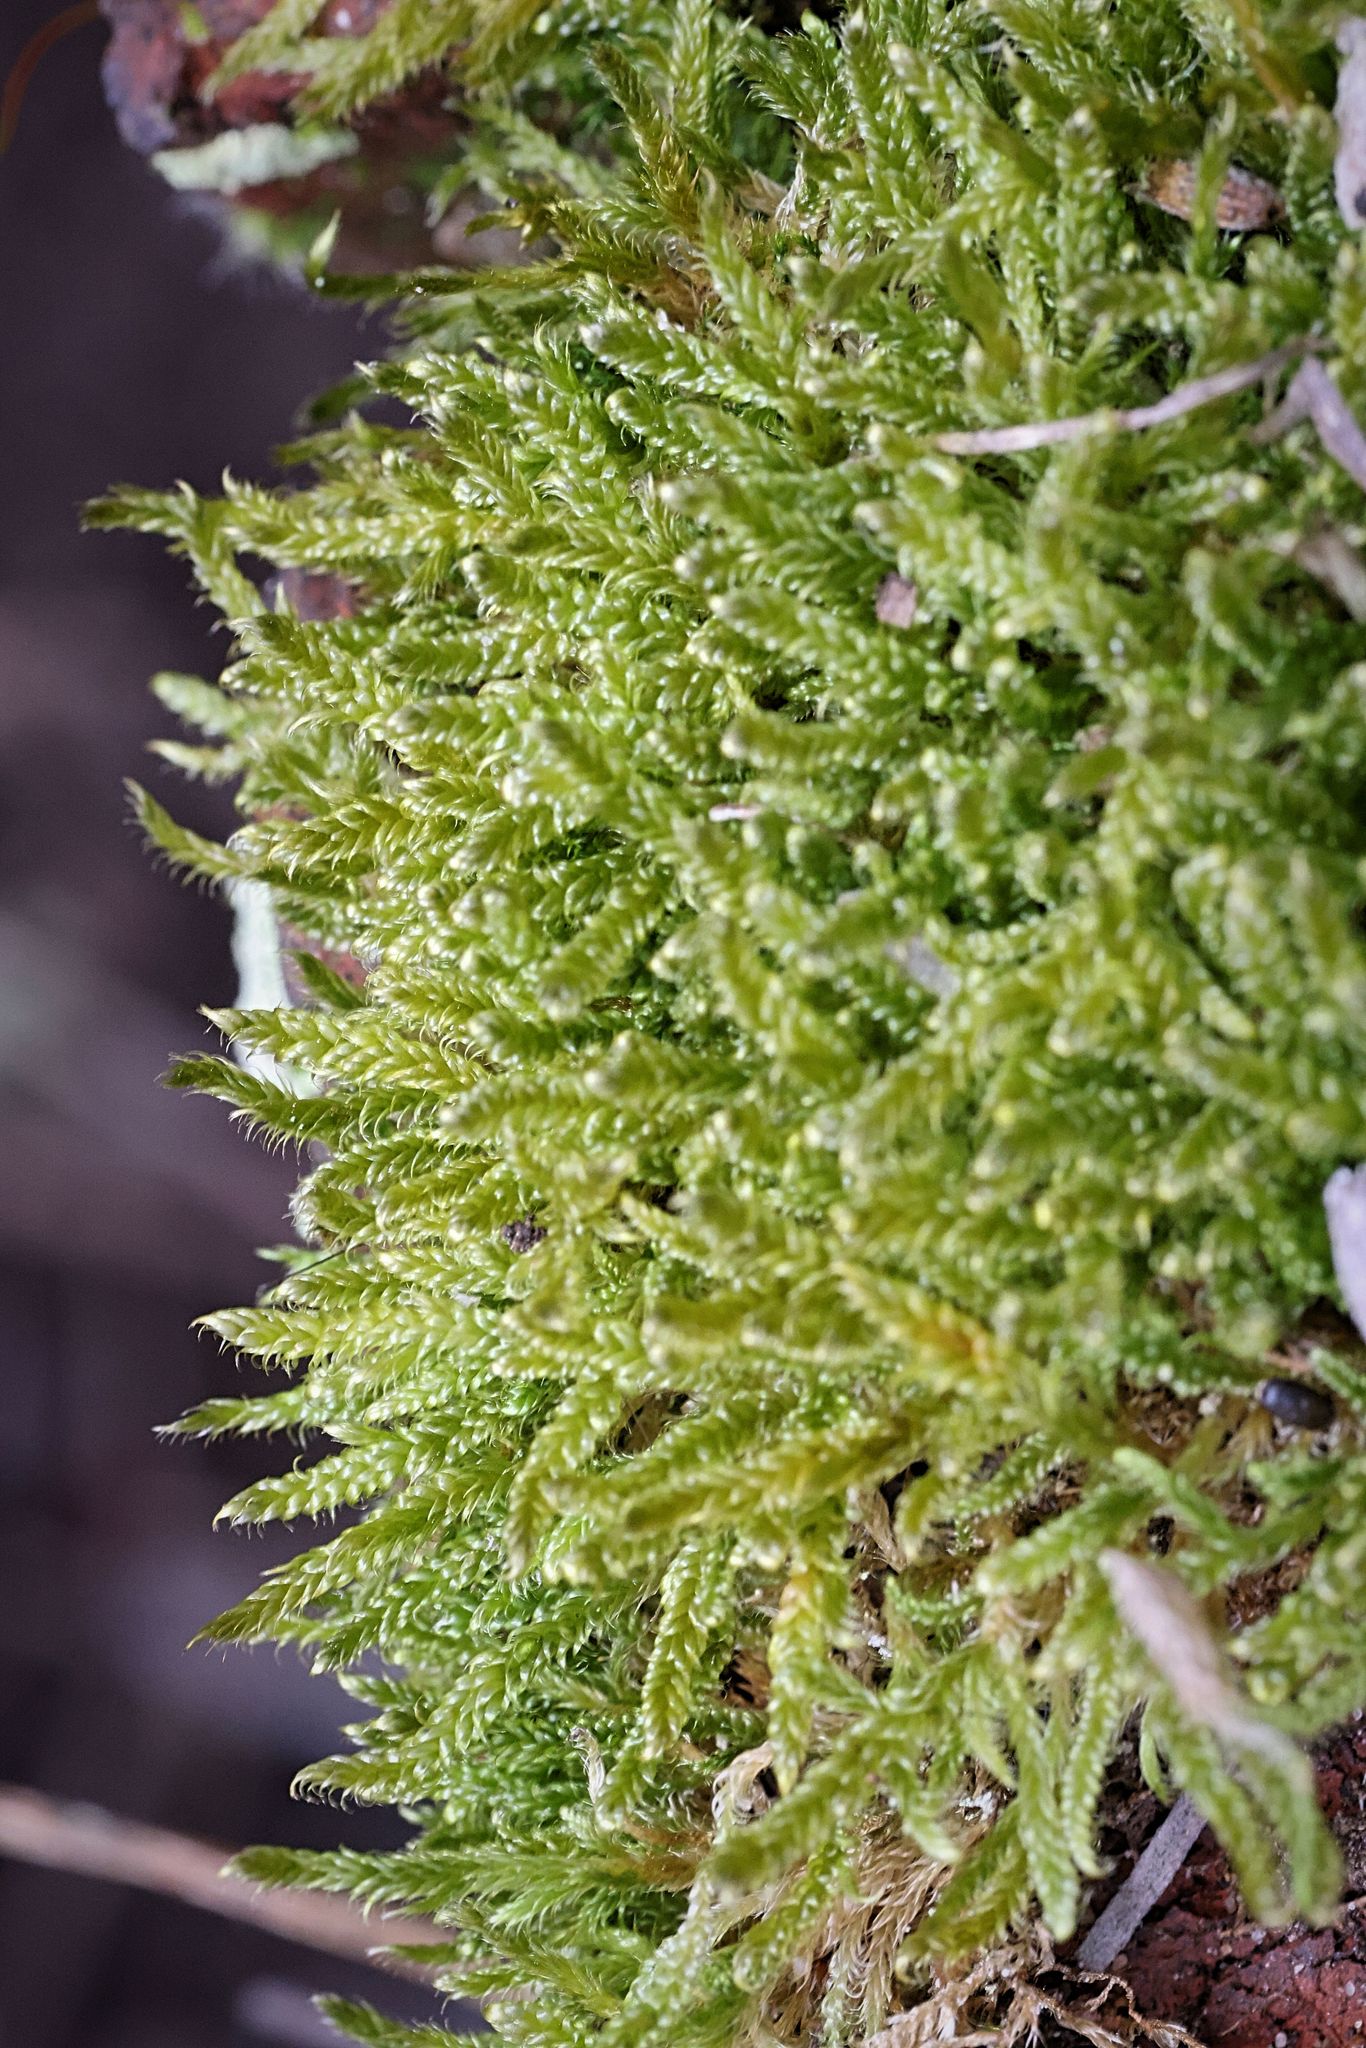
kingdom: Plantae
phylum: Bryophyta
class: Bryopsida
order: Hypnales
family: Hypnaceae
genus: Hypnum
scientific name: Hypnum cupressiforme
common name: Cypress-leaved plait-moss
